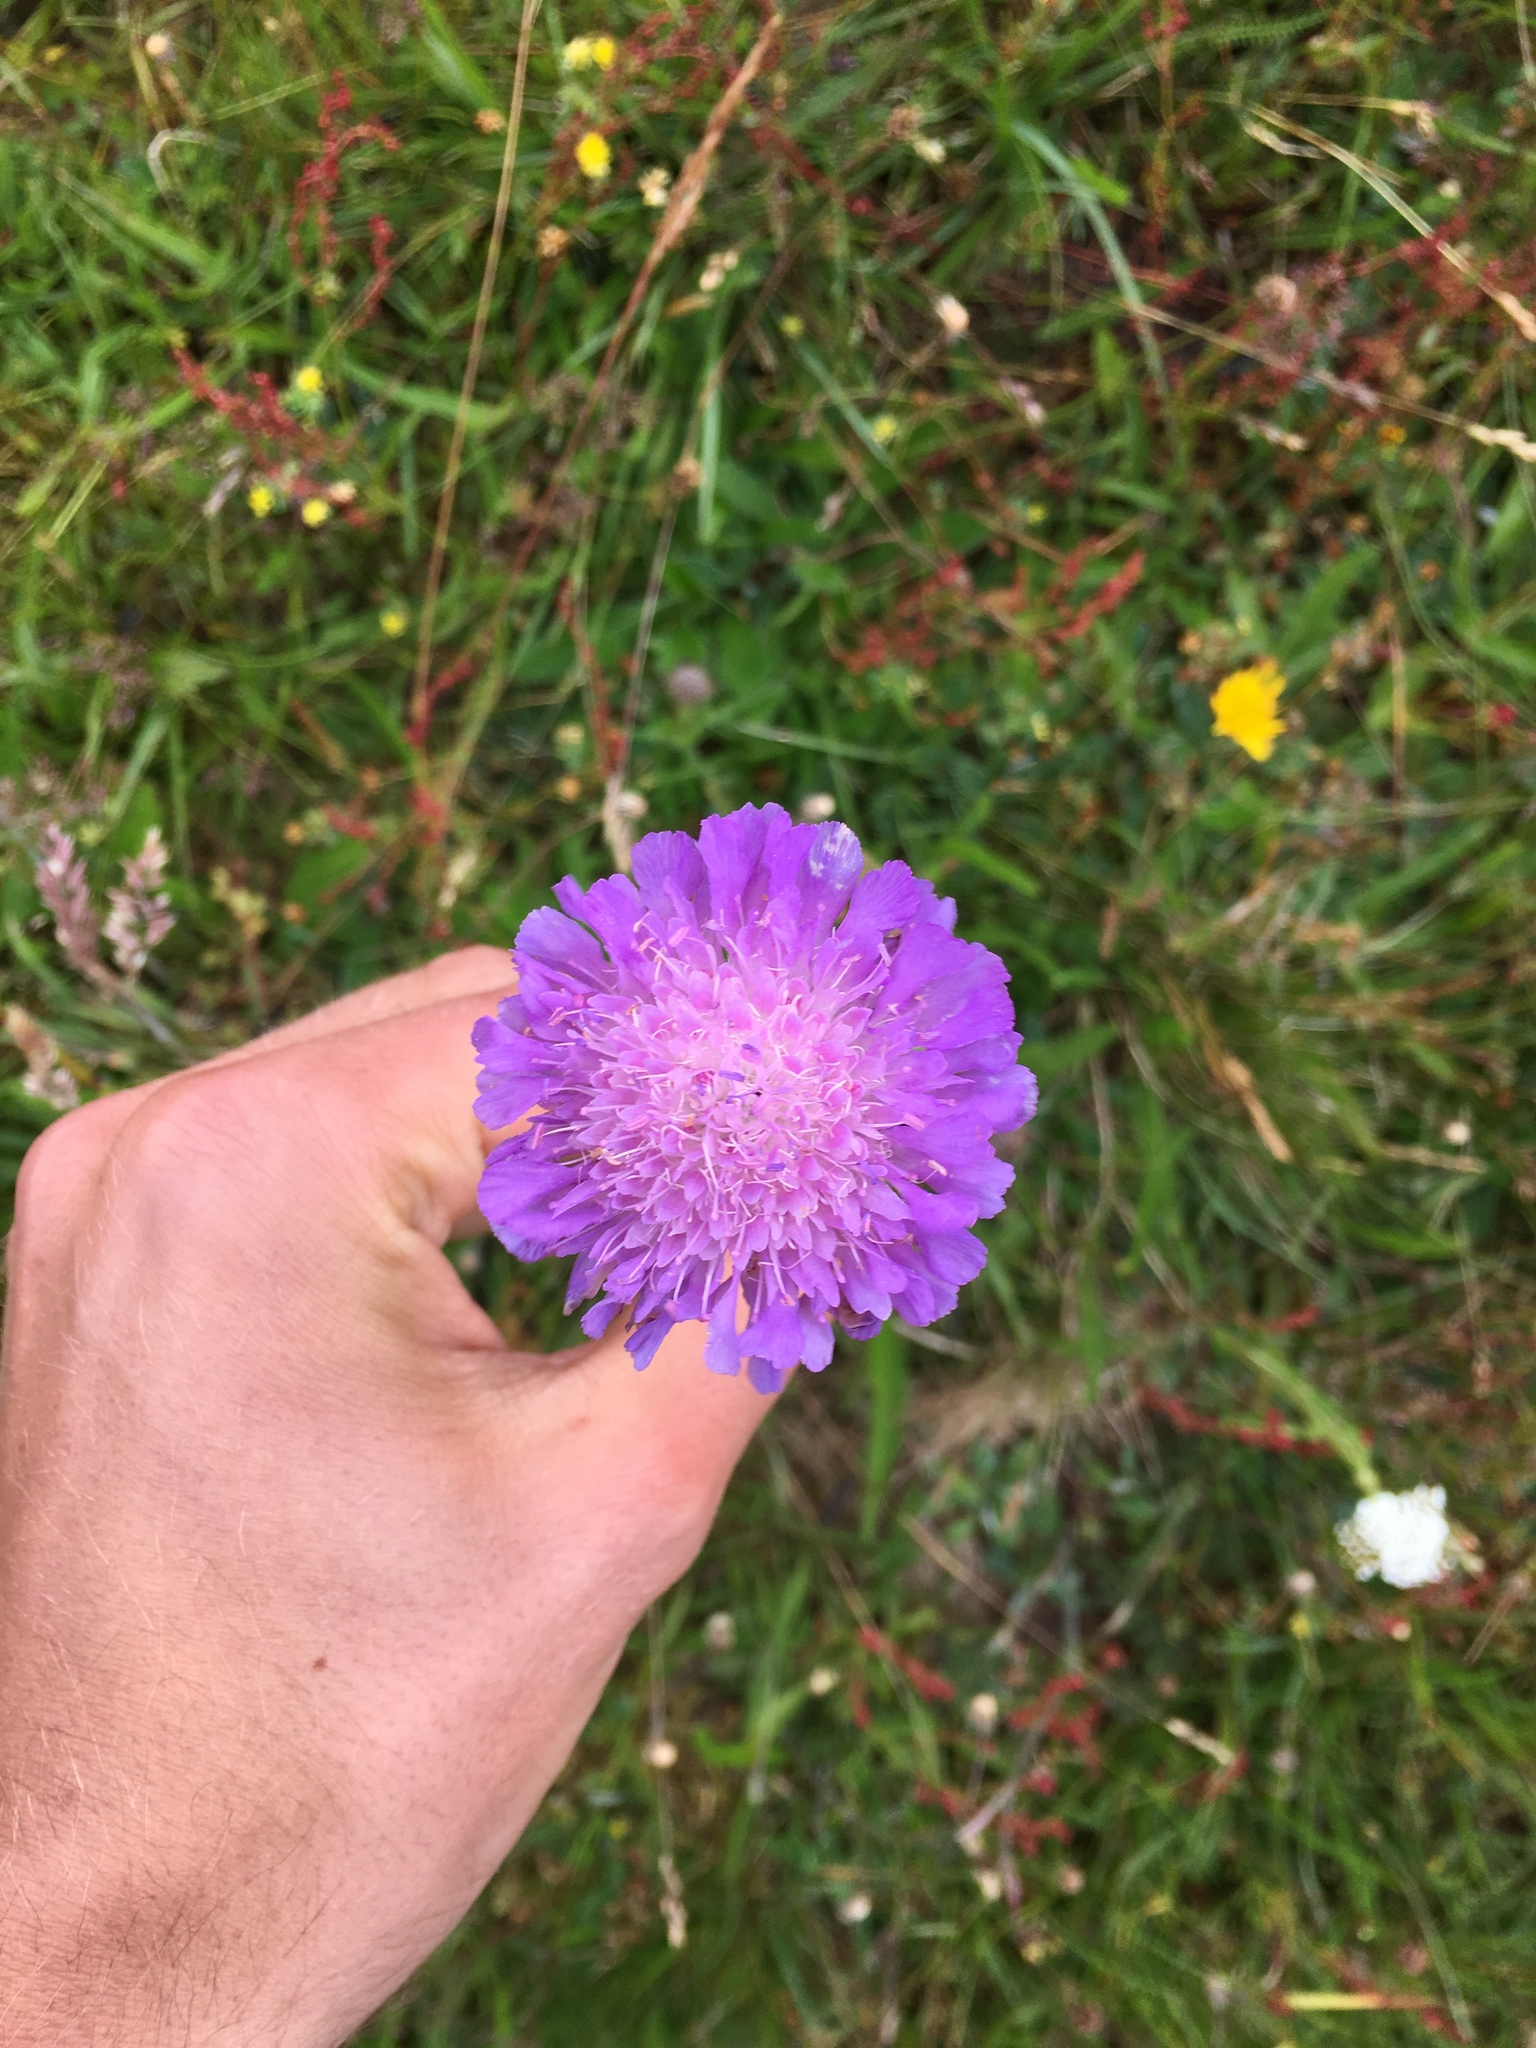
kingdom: Plantae
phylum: Tracheophyta
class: Magnoliopsida
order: Dipsacales
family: Caprifoliaceae
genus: Knautia
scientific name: Knautia arvensis
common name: Field scabiosa
